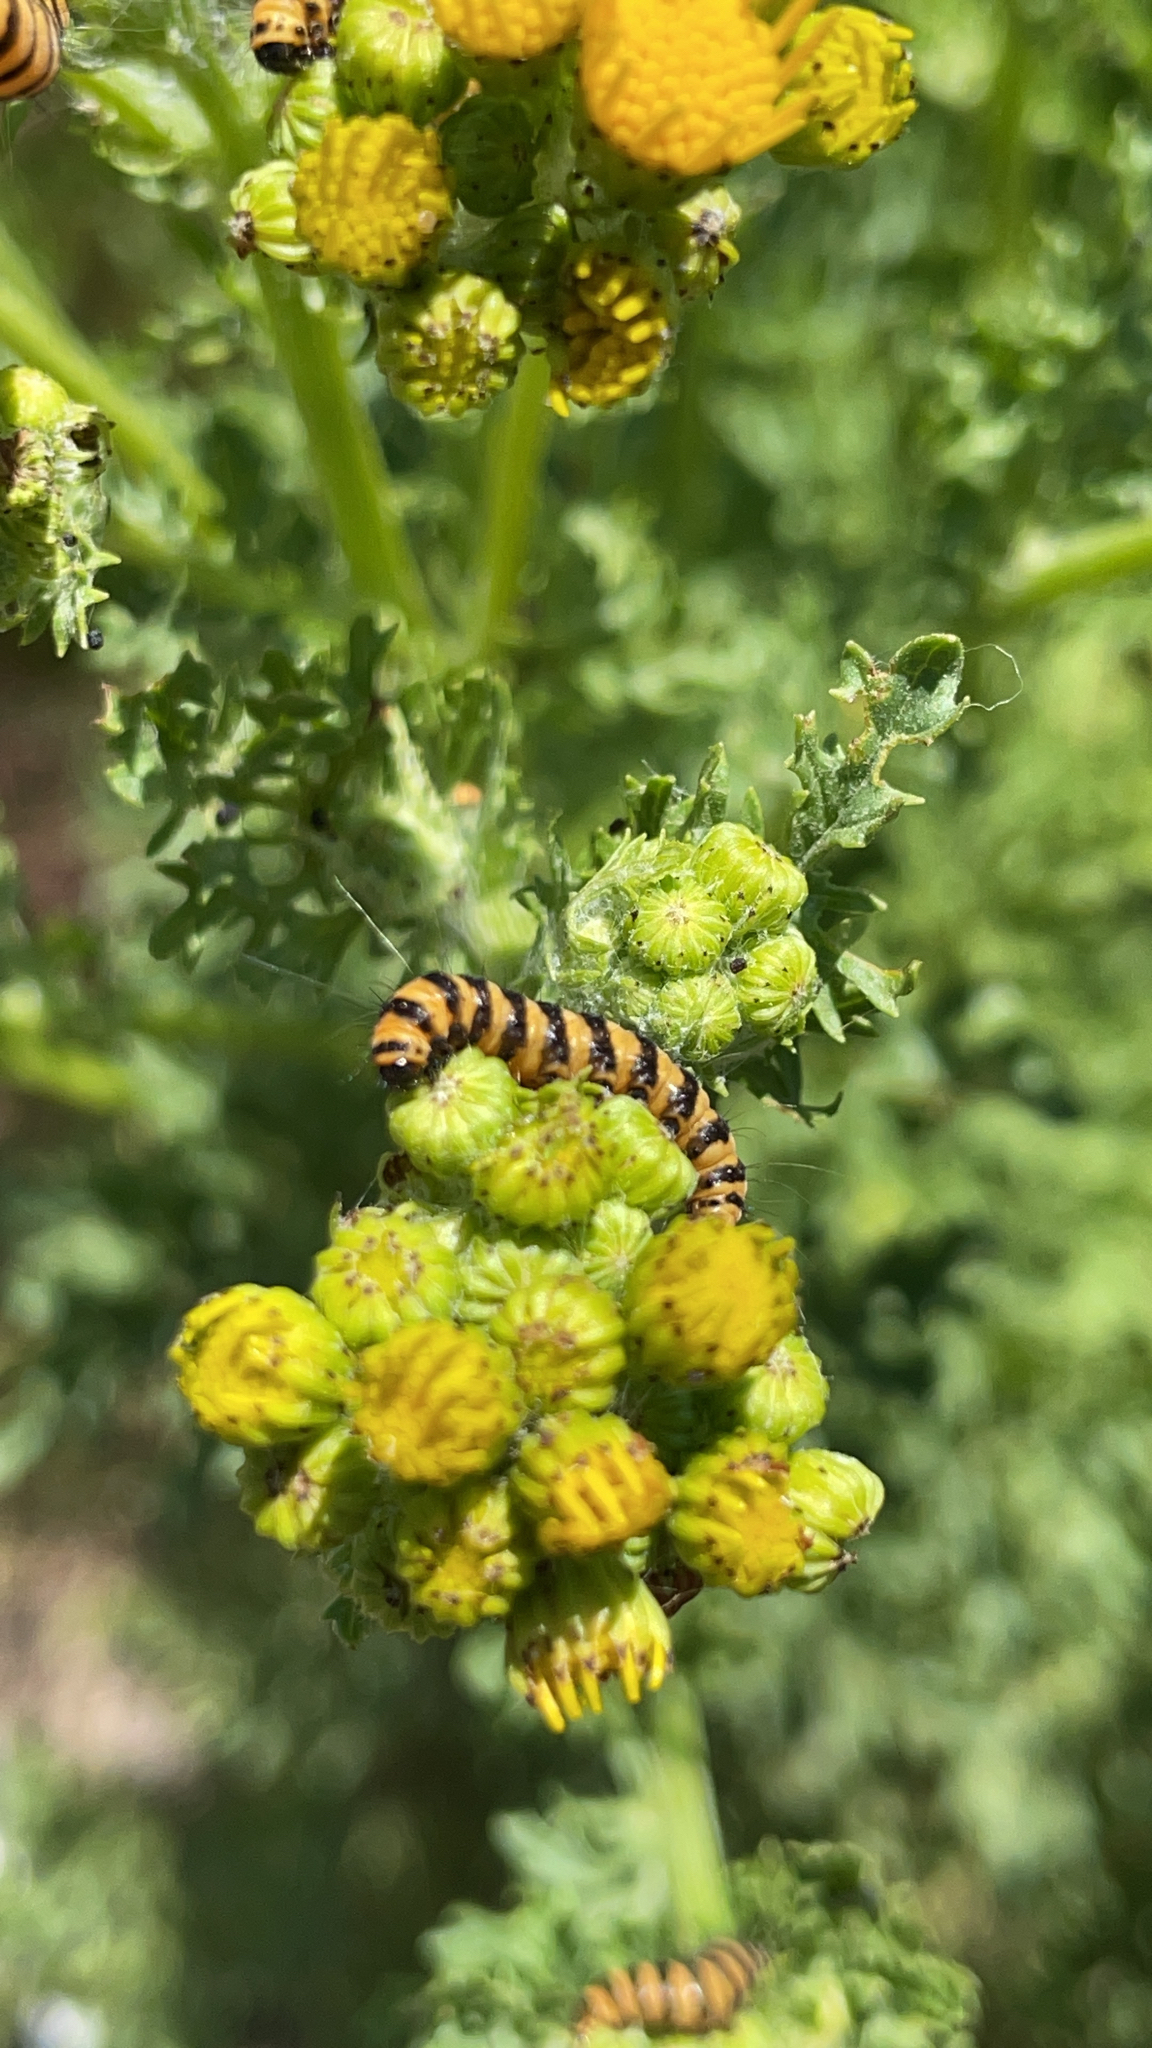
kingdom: Animalia
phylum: Arthropoda
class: Insecta
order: Lepidoptera
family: Erebidae
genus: Tyria
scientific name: Tyria jacobaeae
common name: Cinnabar
